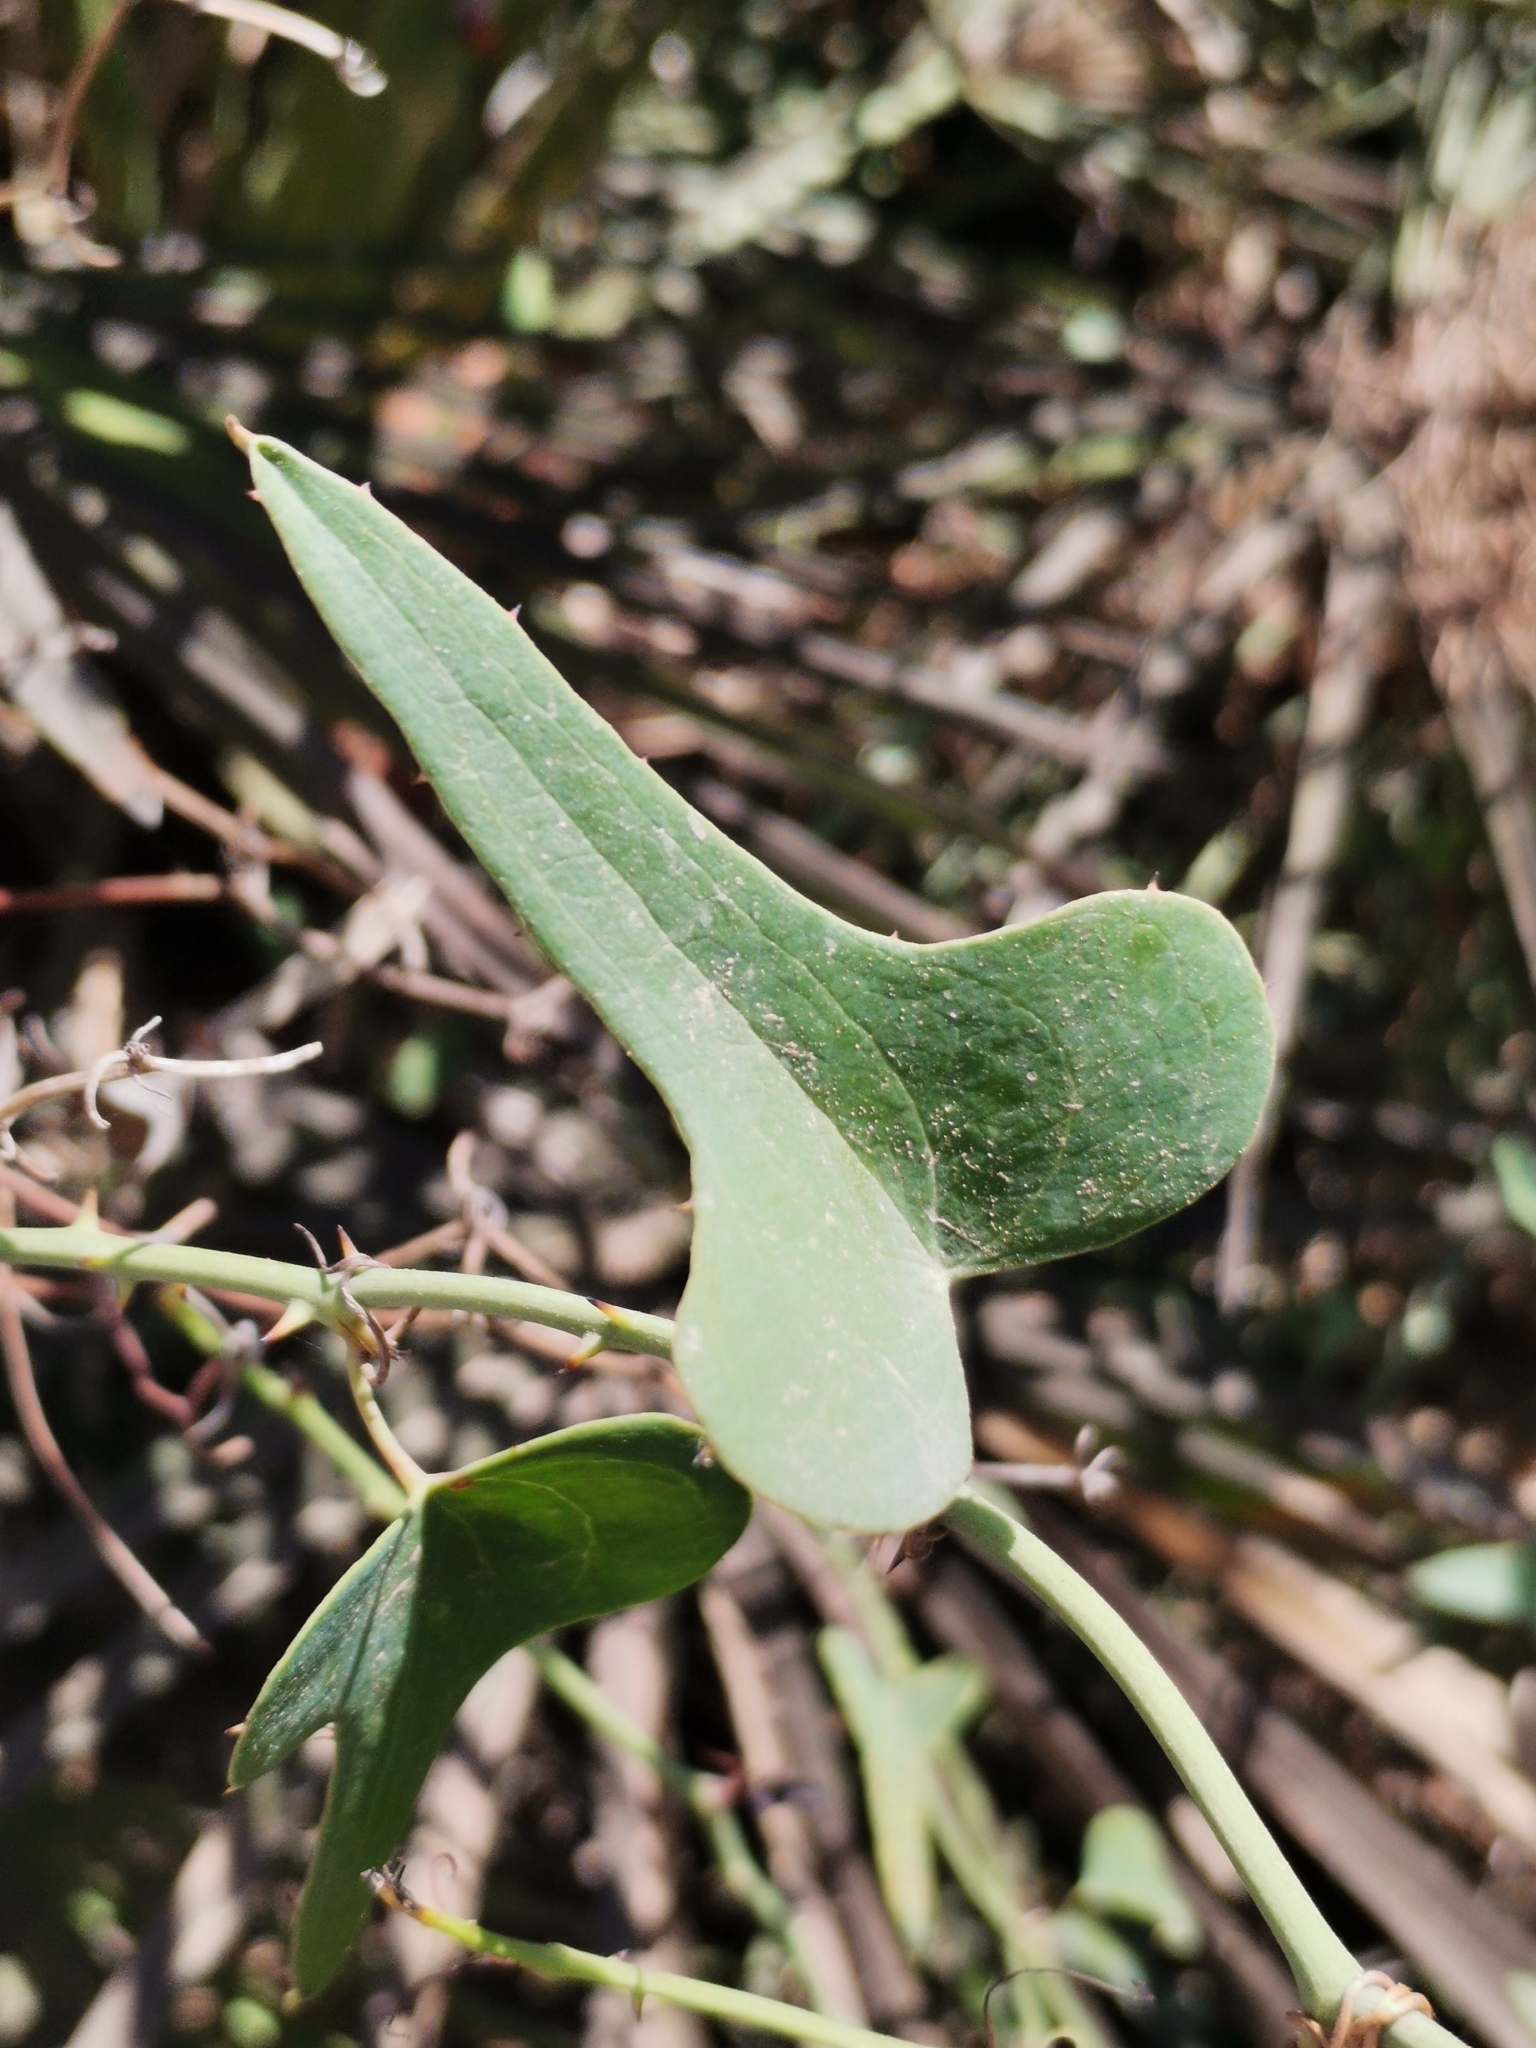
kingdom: Plantae
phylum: Tracheophyta
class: Liliopsida
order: Liliales
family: Smilacaceae
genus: Smilax
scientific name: Smilax aspera
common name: Common smilax
